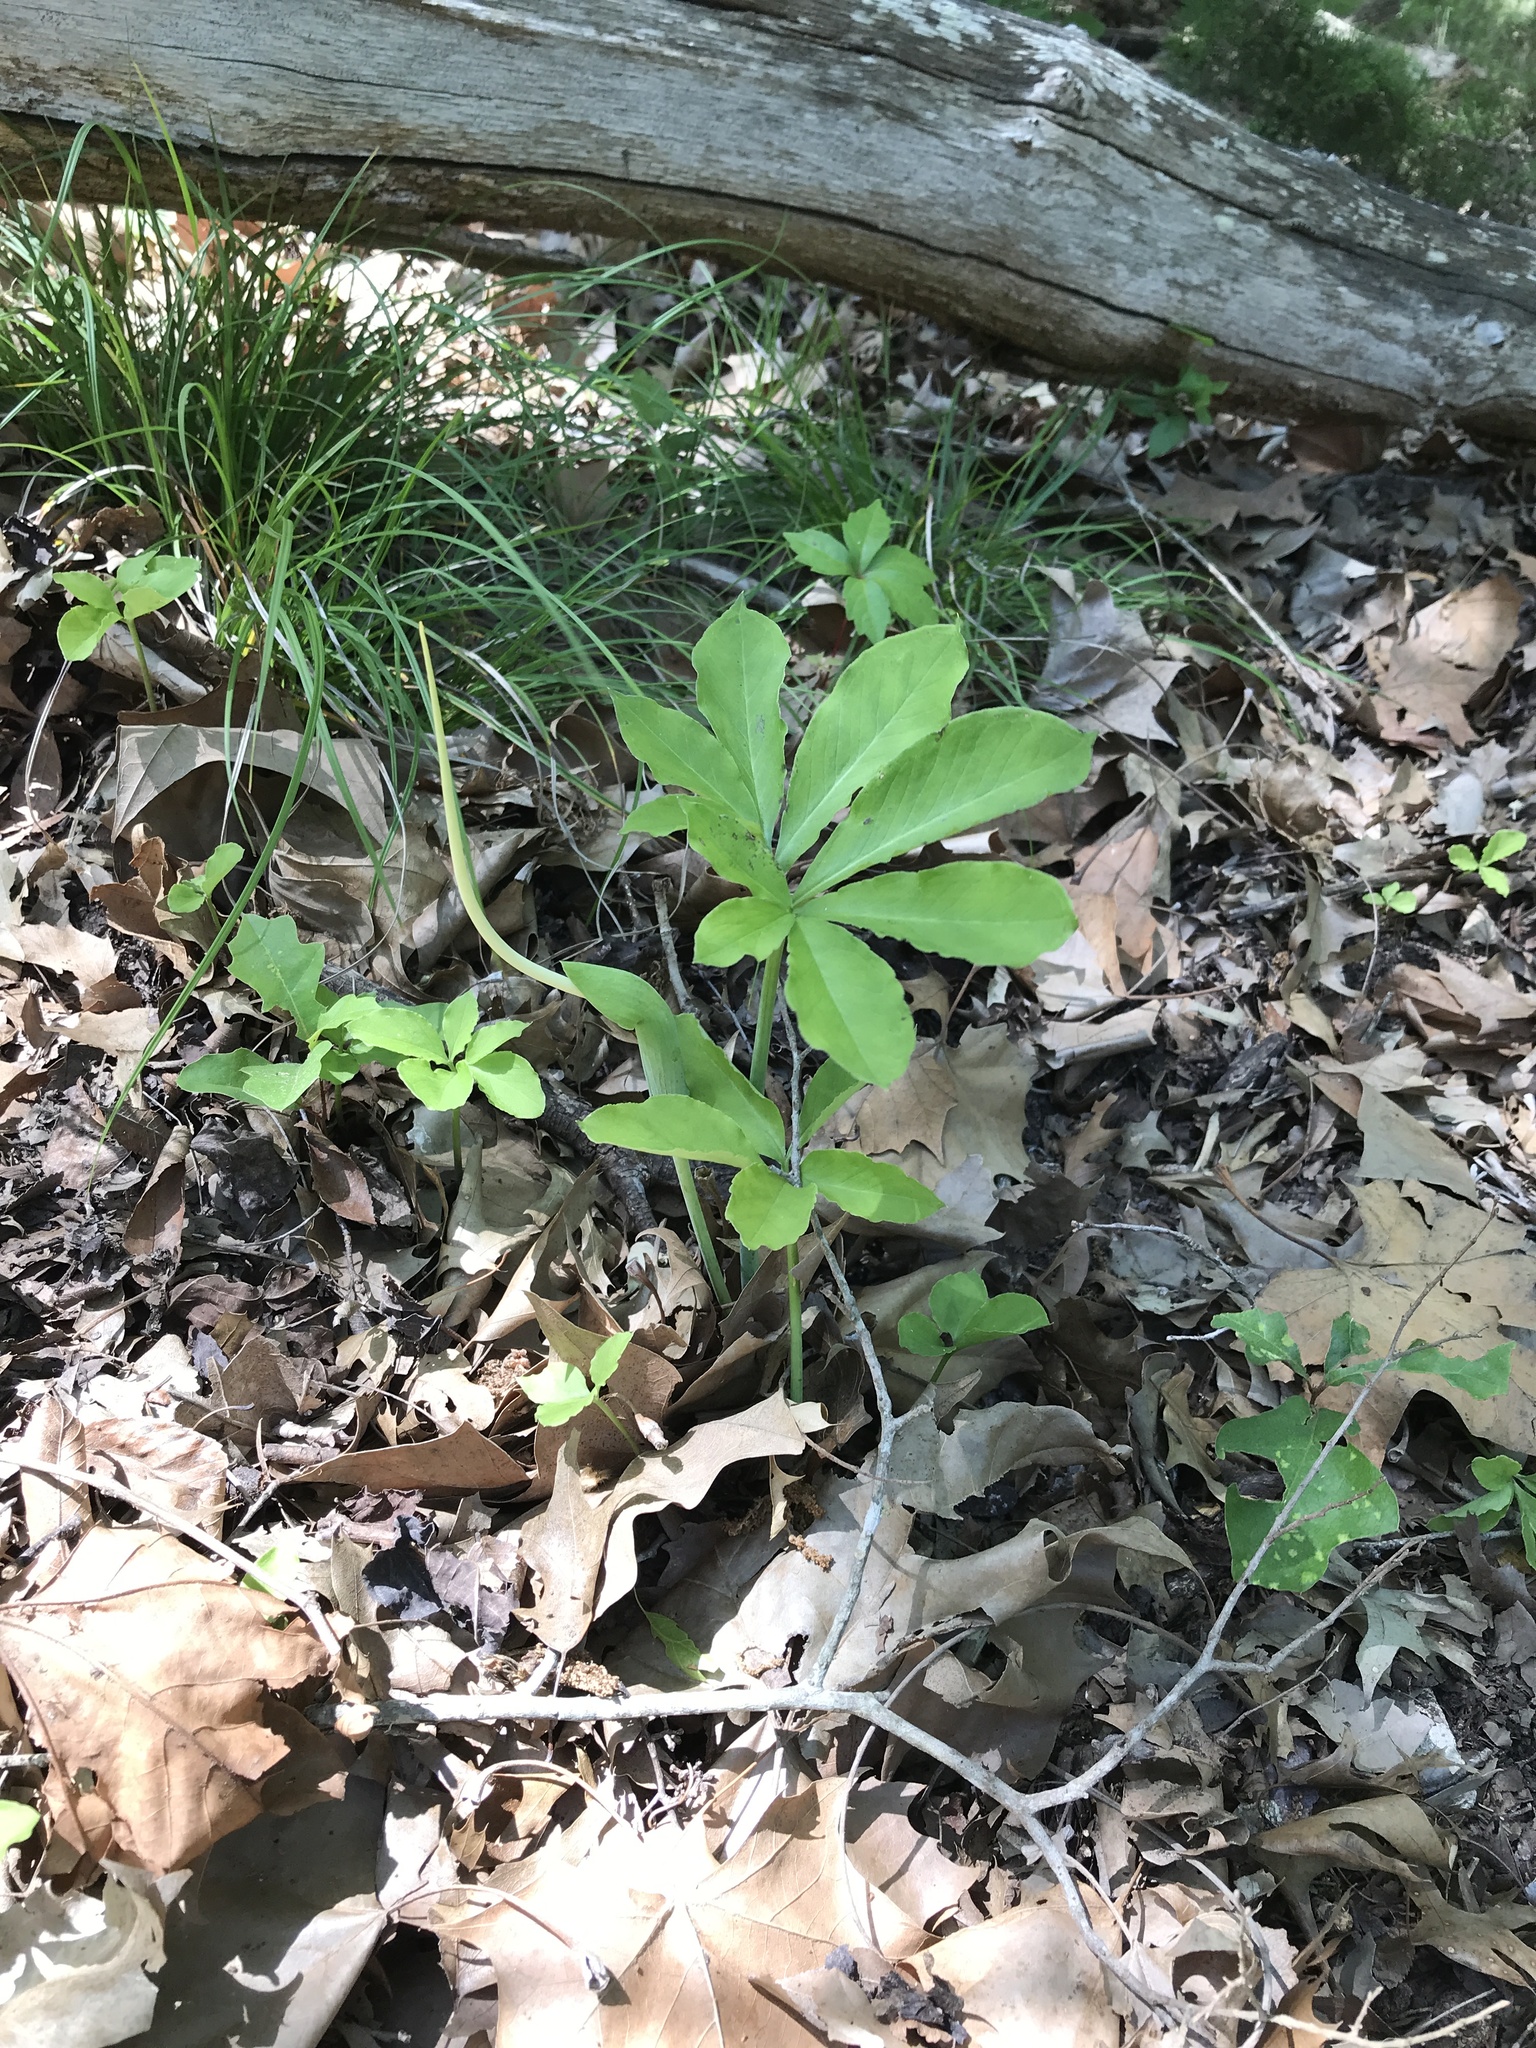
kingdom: Plantae
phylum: Tracheophyta
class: Liliopsida
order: Alismatales
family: Araceae
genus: Arisaema
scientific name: Arisaema dracontium
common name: Dragon-arum
